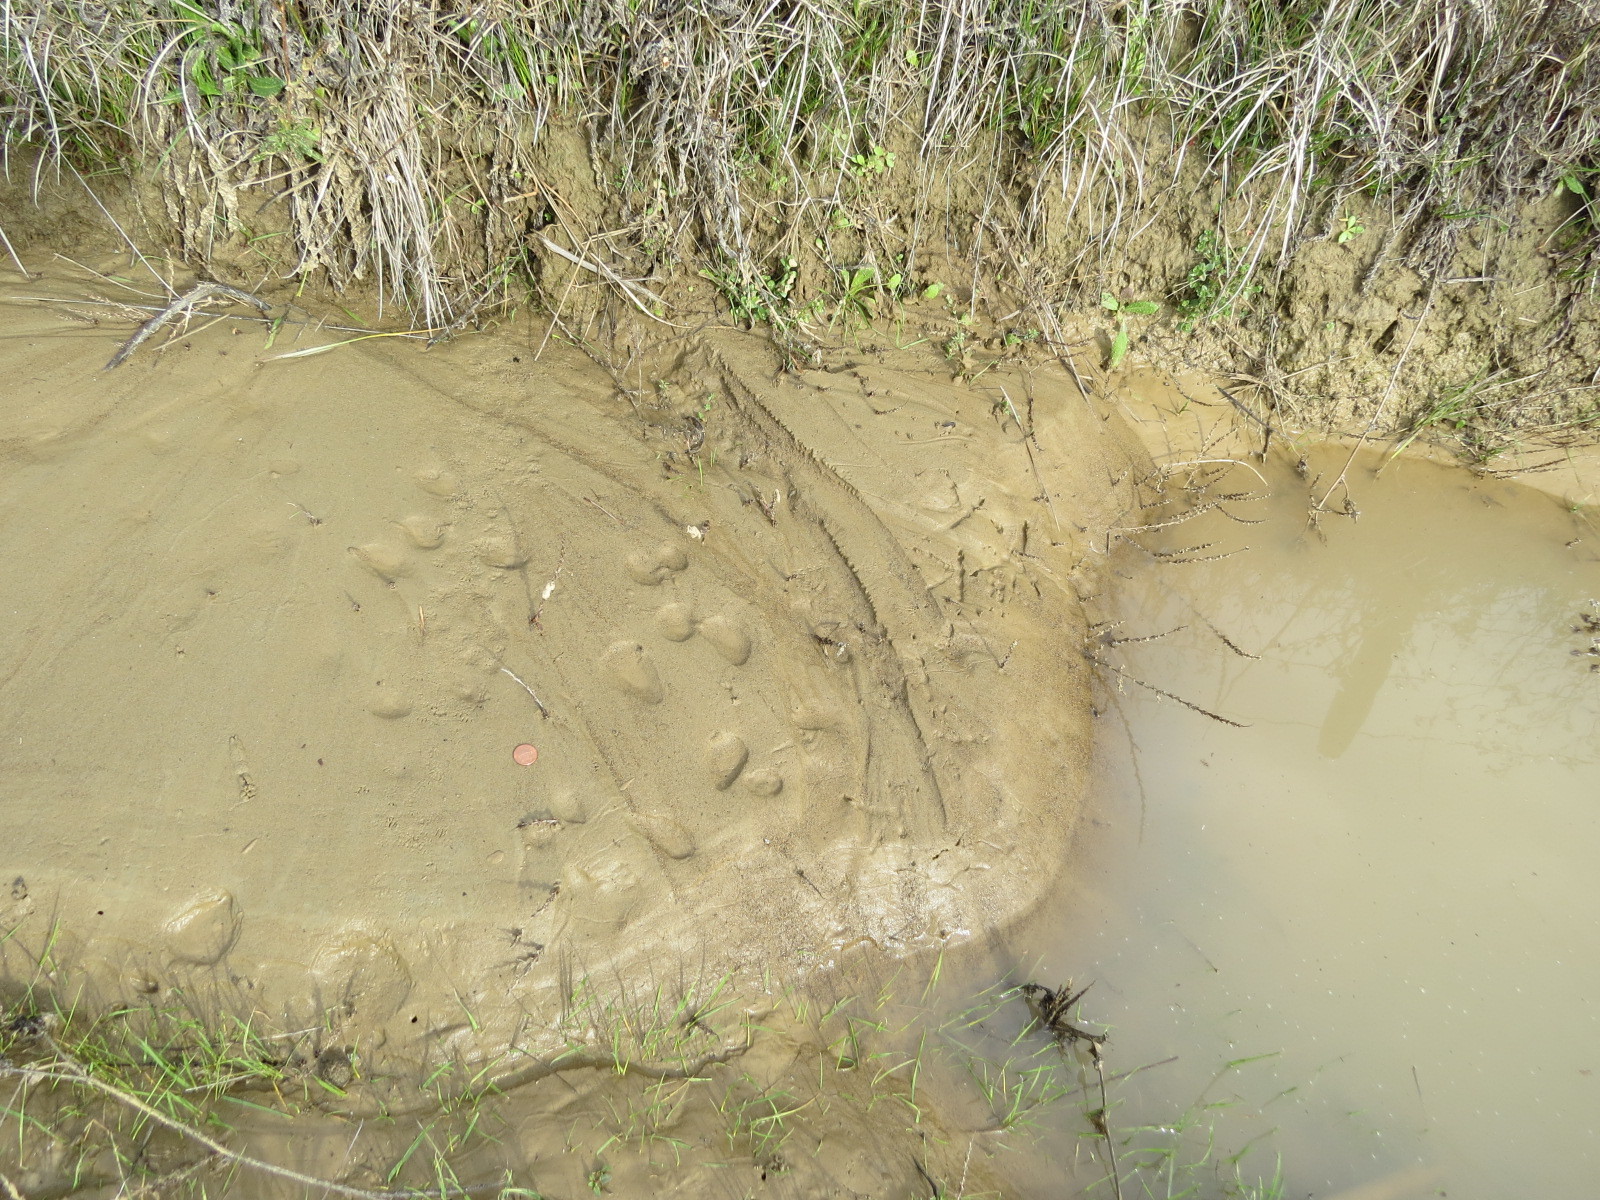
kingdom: Animalia
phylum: Chordata
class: Aves
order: Strigiformes
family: Tytonidae
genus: Tyto
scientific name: Tyto alba
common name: Barn owl
